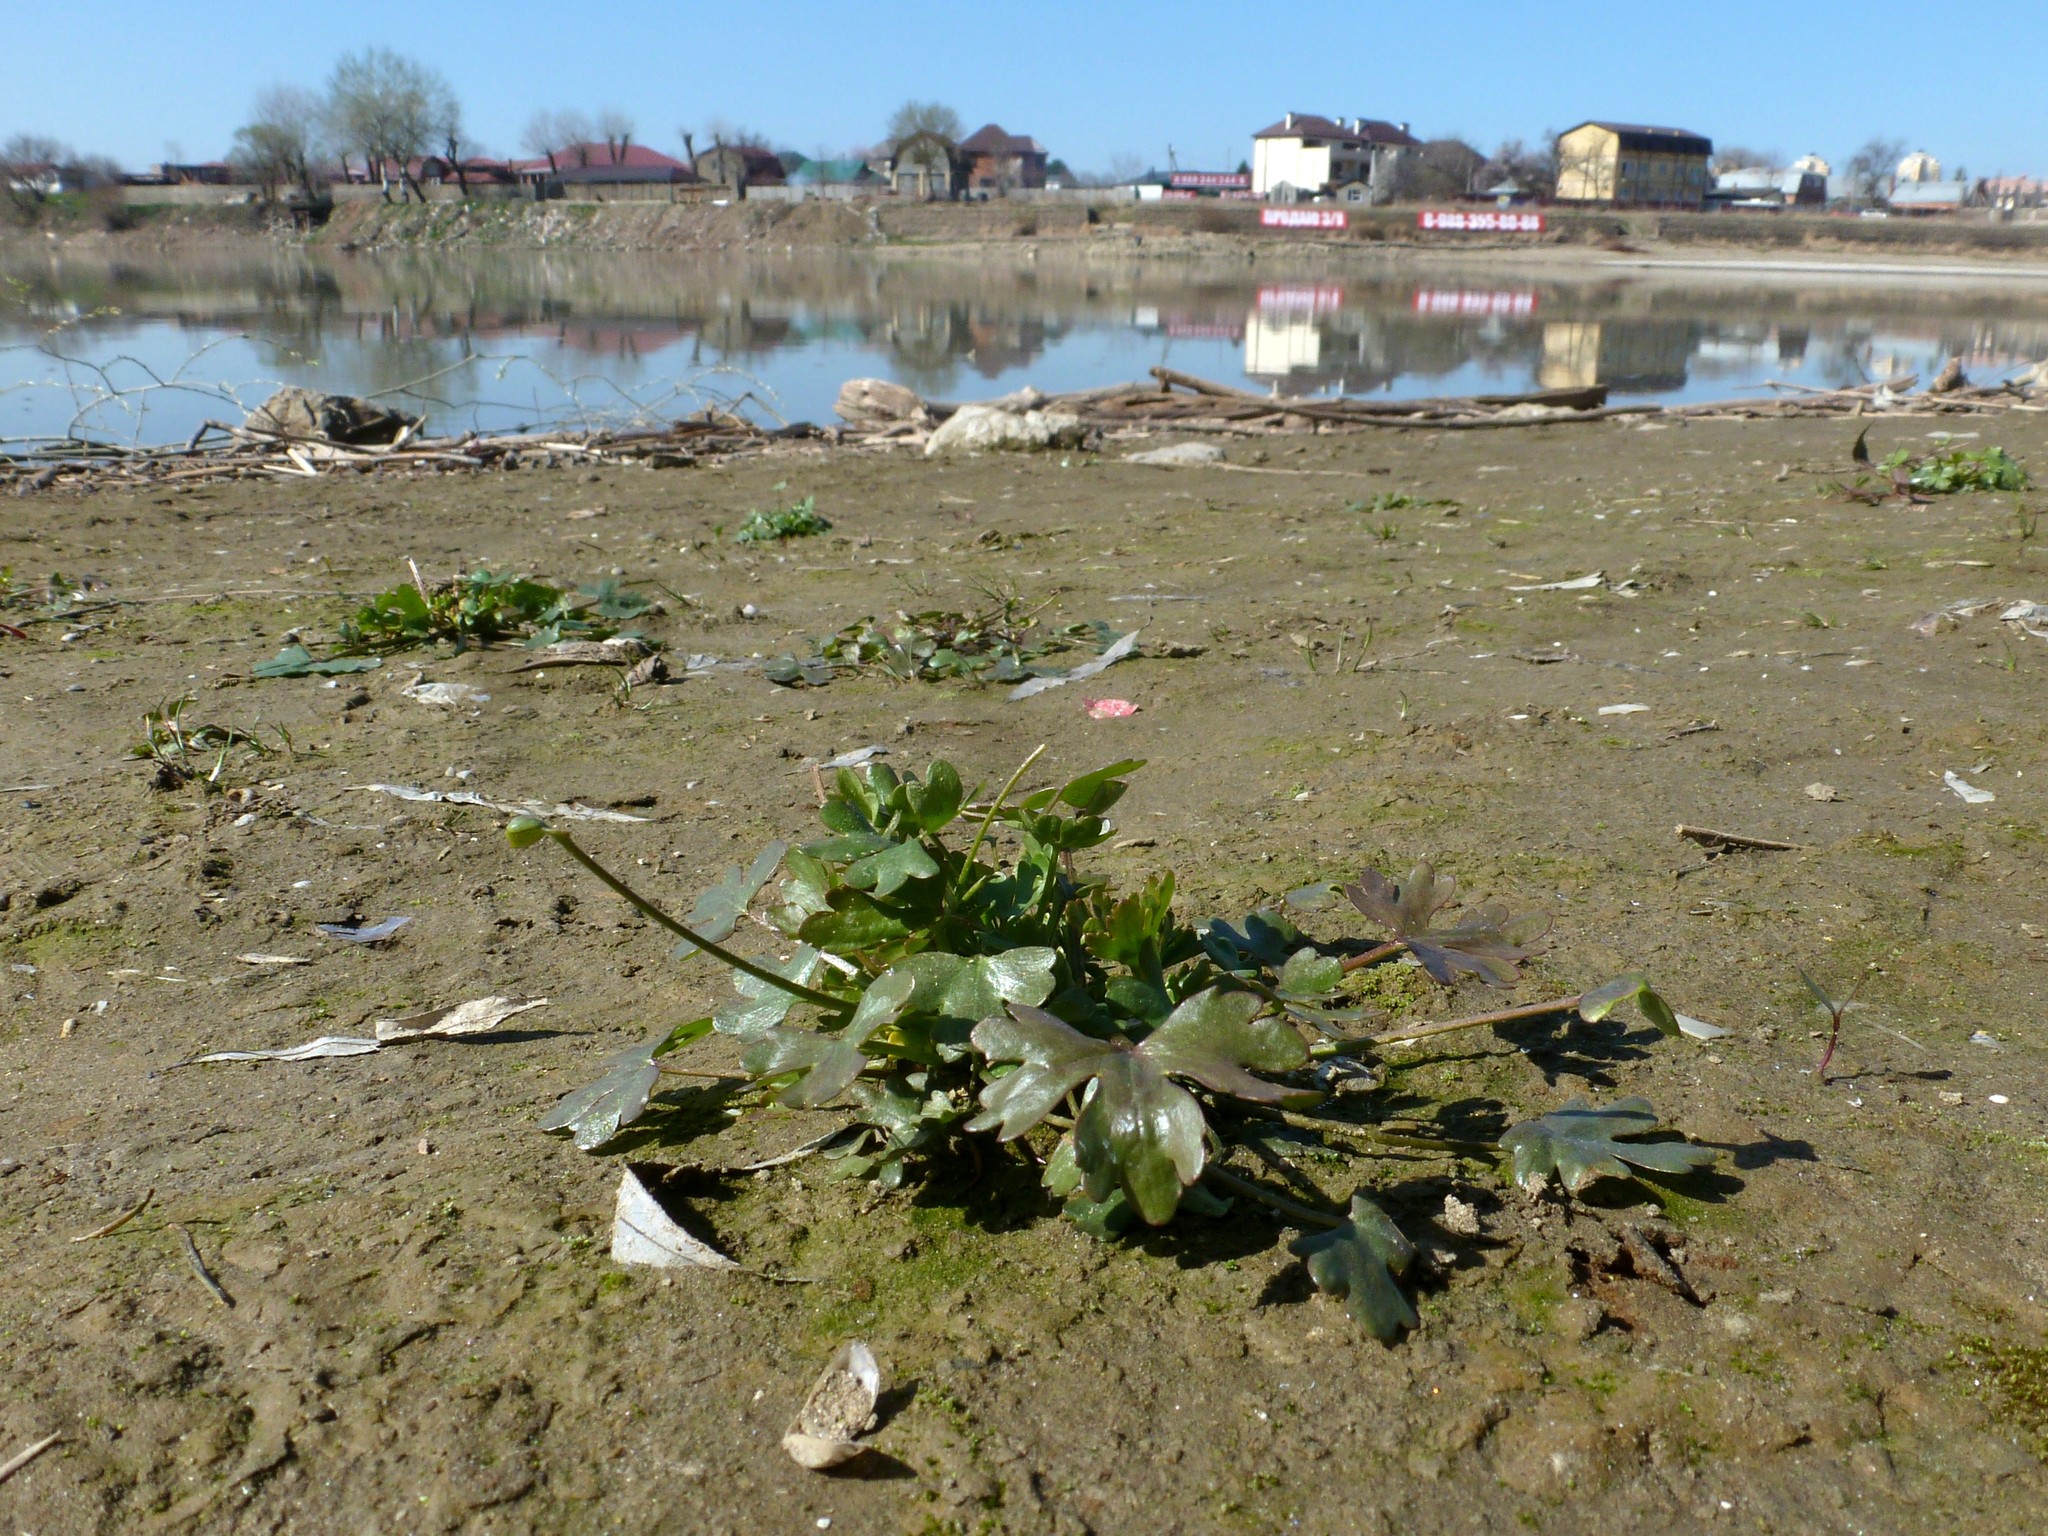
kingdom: Plantae
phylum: Tracheophyta
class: Magnoliopsida
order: Ranunculales
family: Ranunculaceae
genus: Ranunculus
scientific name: Ranunculus sceleratus
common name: Celery-leaved buttercup
